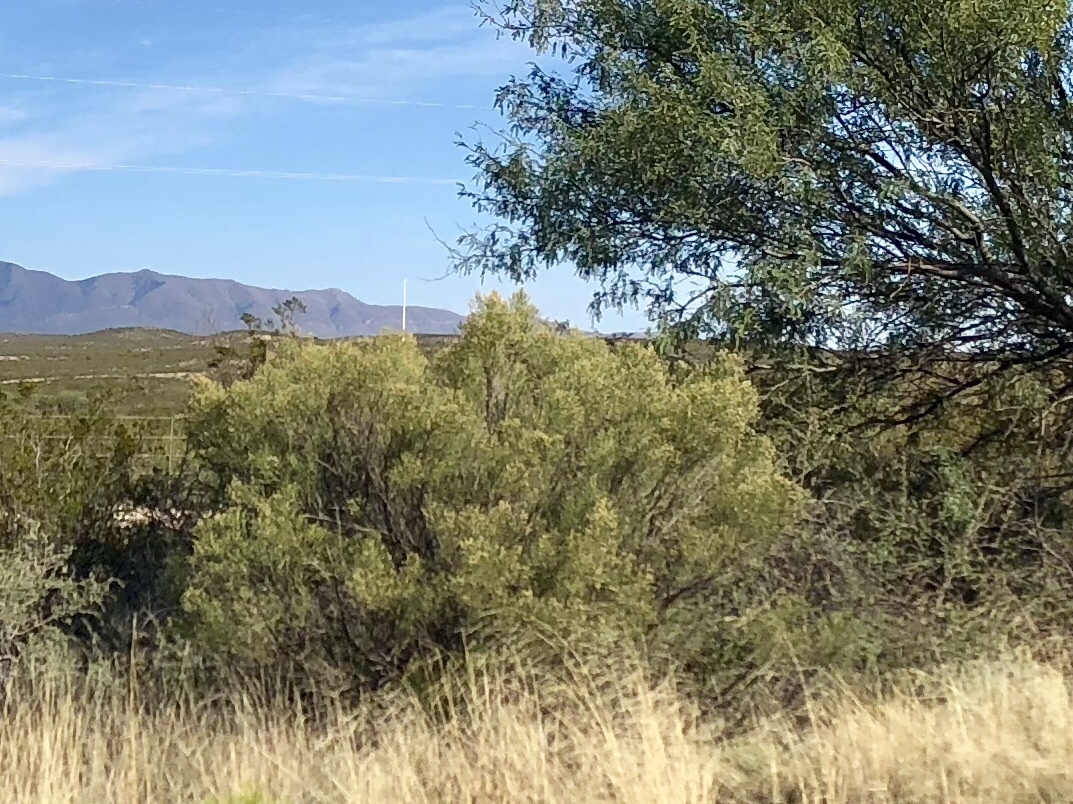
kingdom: Plantae
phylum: Tracheophyta
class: Magnoliopsida
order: Asterales
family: Asteraceae
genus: Baccharis
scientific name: Baccharis sarothroides
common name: Desert-broom
